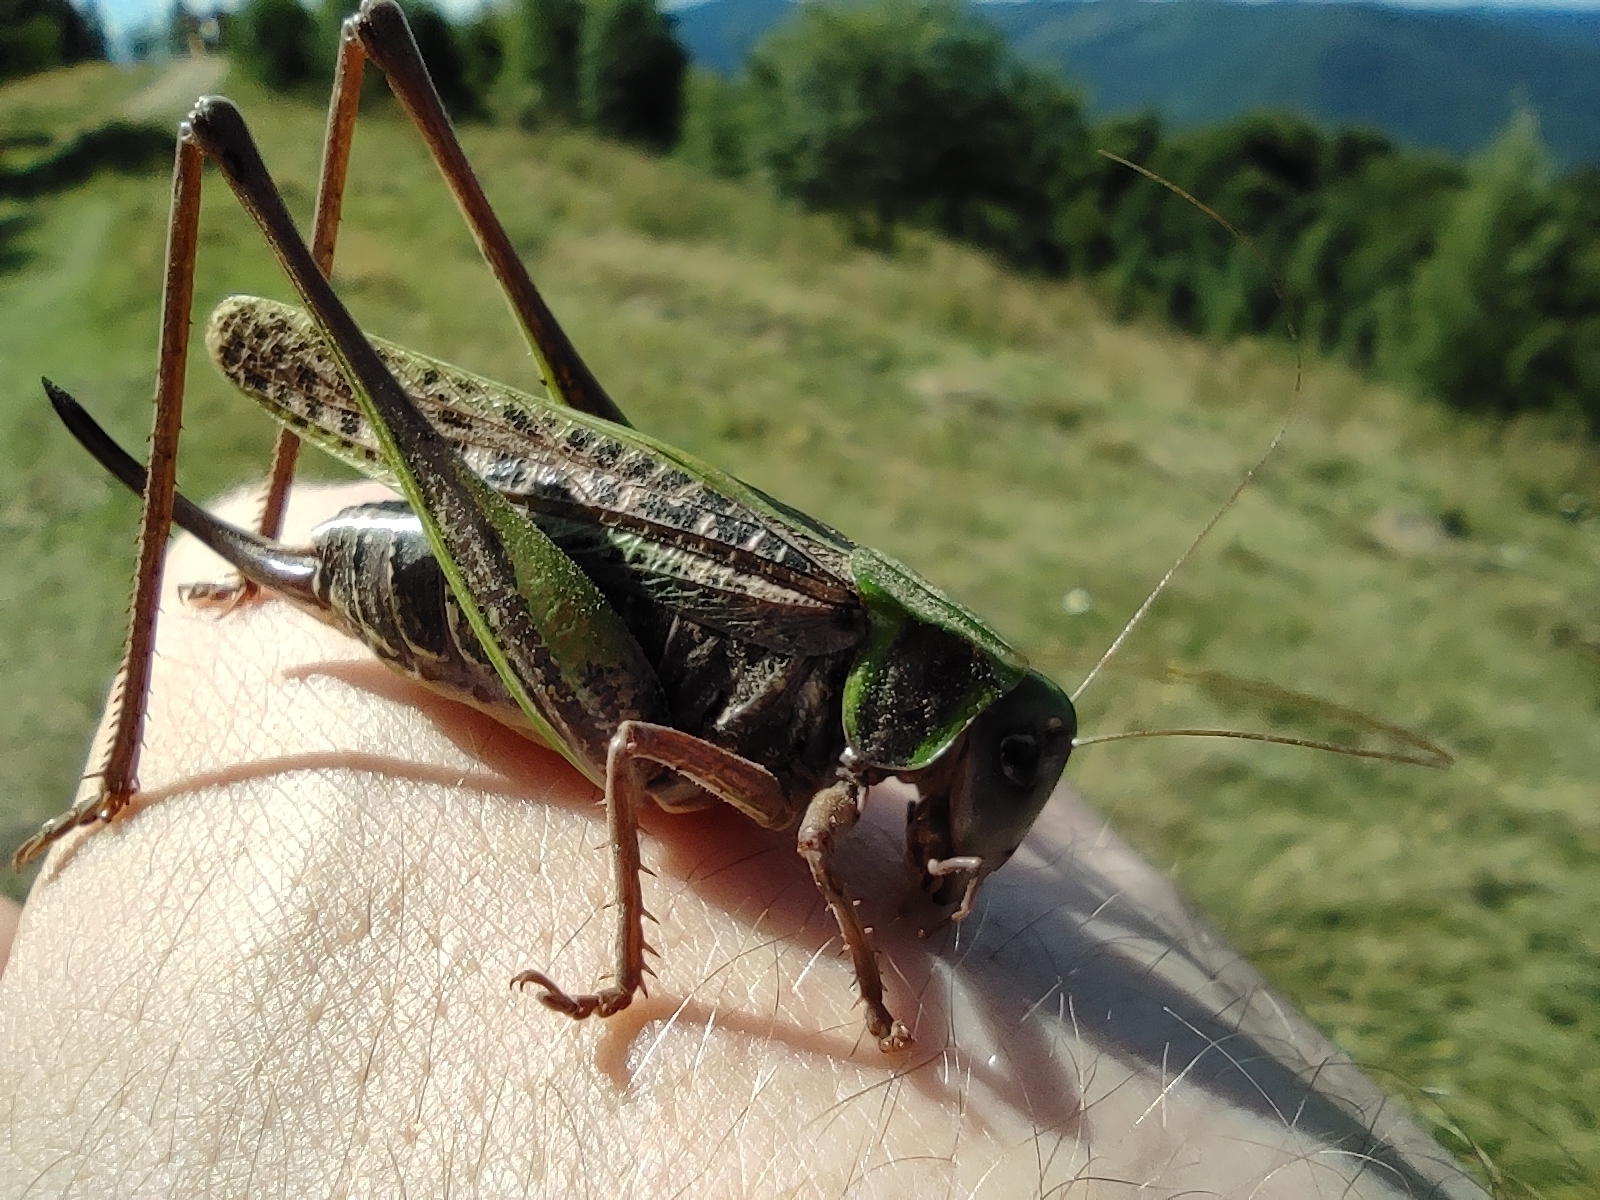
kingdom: Animalia
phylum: Arthropoda
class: Insecta
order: Orthoptera
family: Tettigoniidae
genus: Decticus
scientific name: Decticus verrucivorus
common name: Wart-biter
